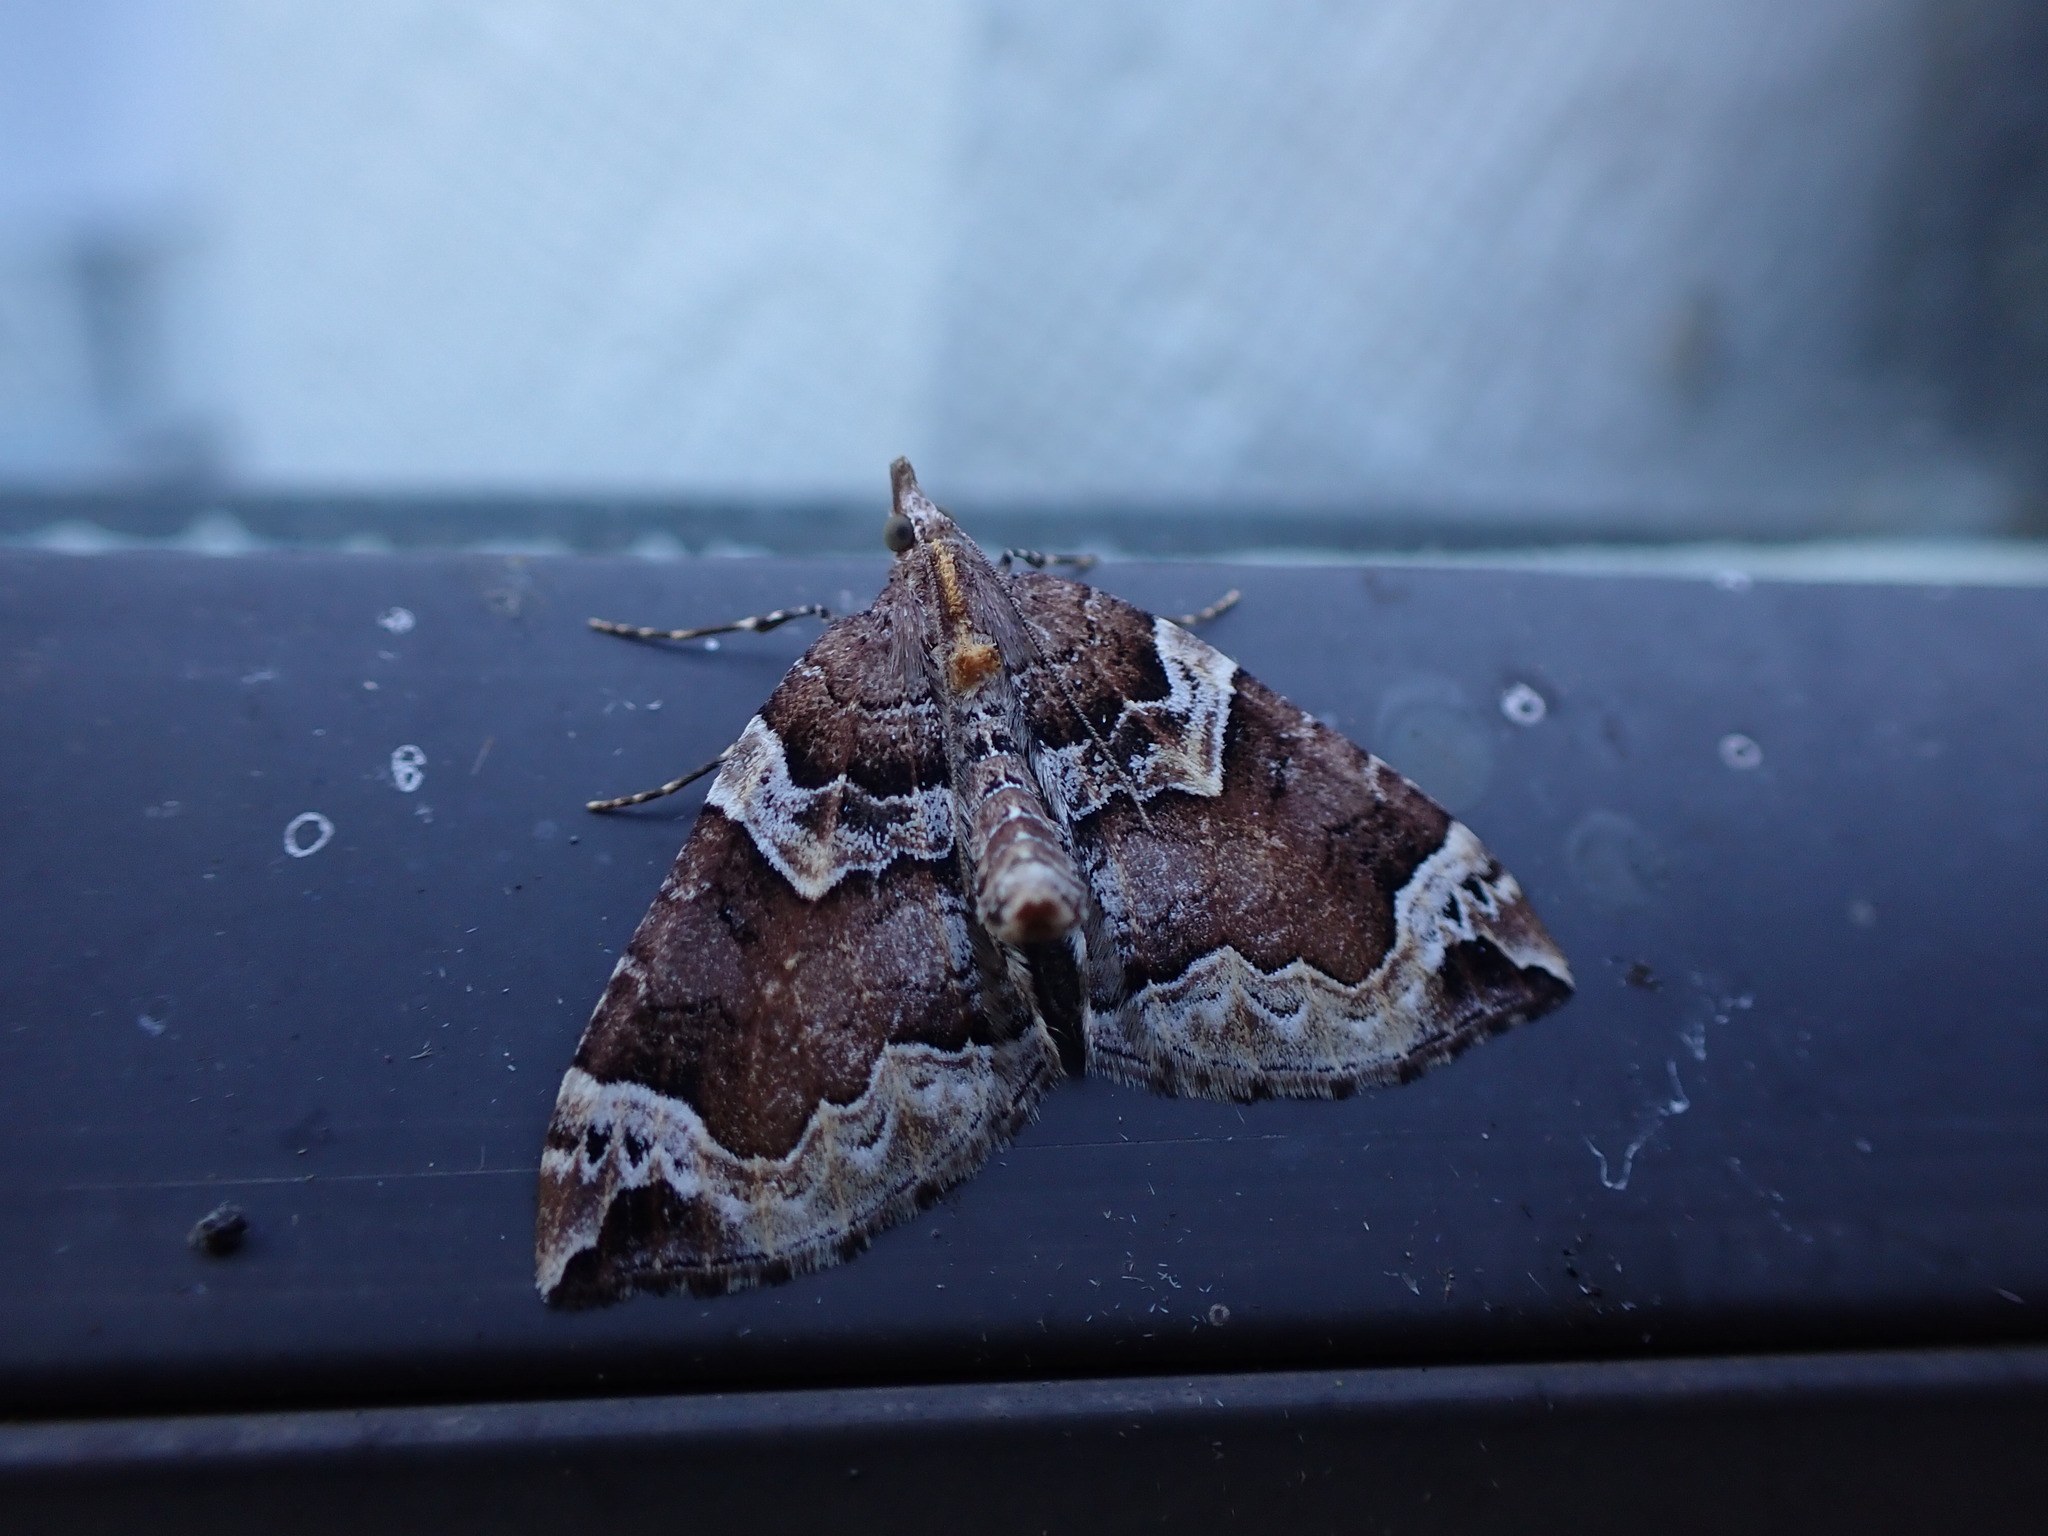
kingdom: Animalia
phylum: Arthropoda
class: Insecta
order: Lepidoptera
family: Geometridae
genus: Eulithis
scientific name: Eulithis xylina
